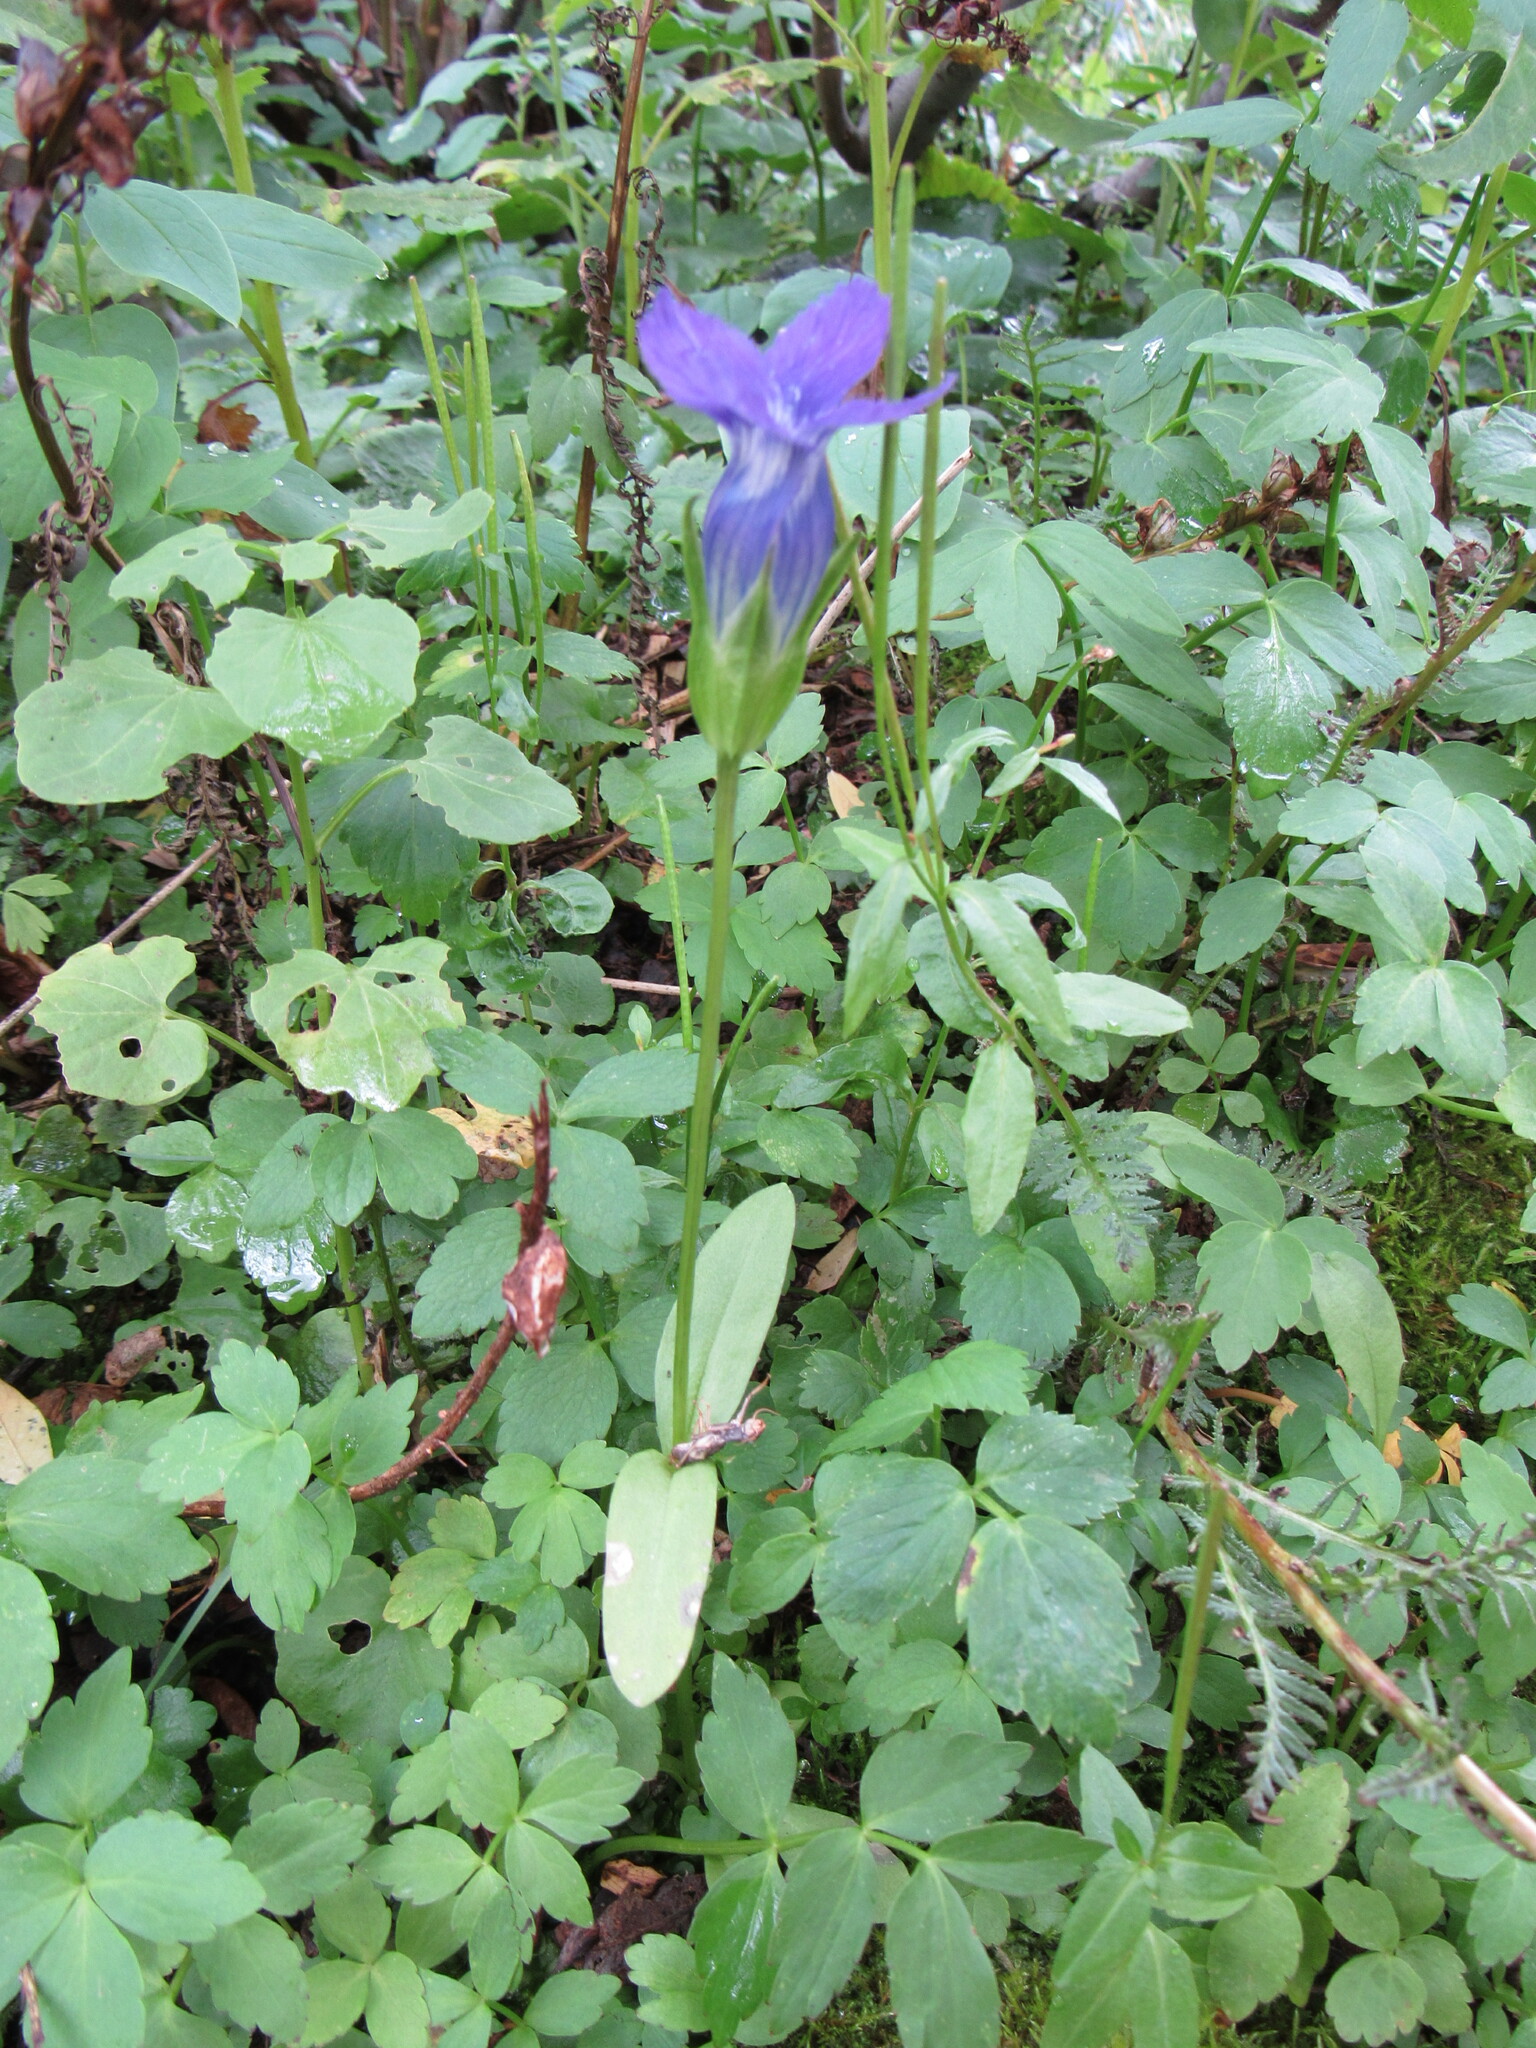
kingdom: Plantae
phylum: Tracheophyta
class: Magnoliopsida
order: Gentianales
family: Gentianaceae
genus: Gentianopsis
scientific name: Gentianopsis thermalis
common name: Rocky mountain fringed-gentian
